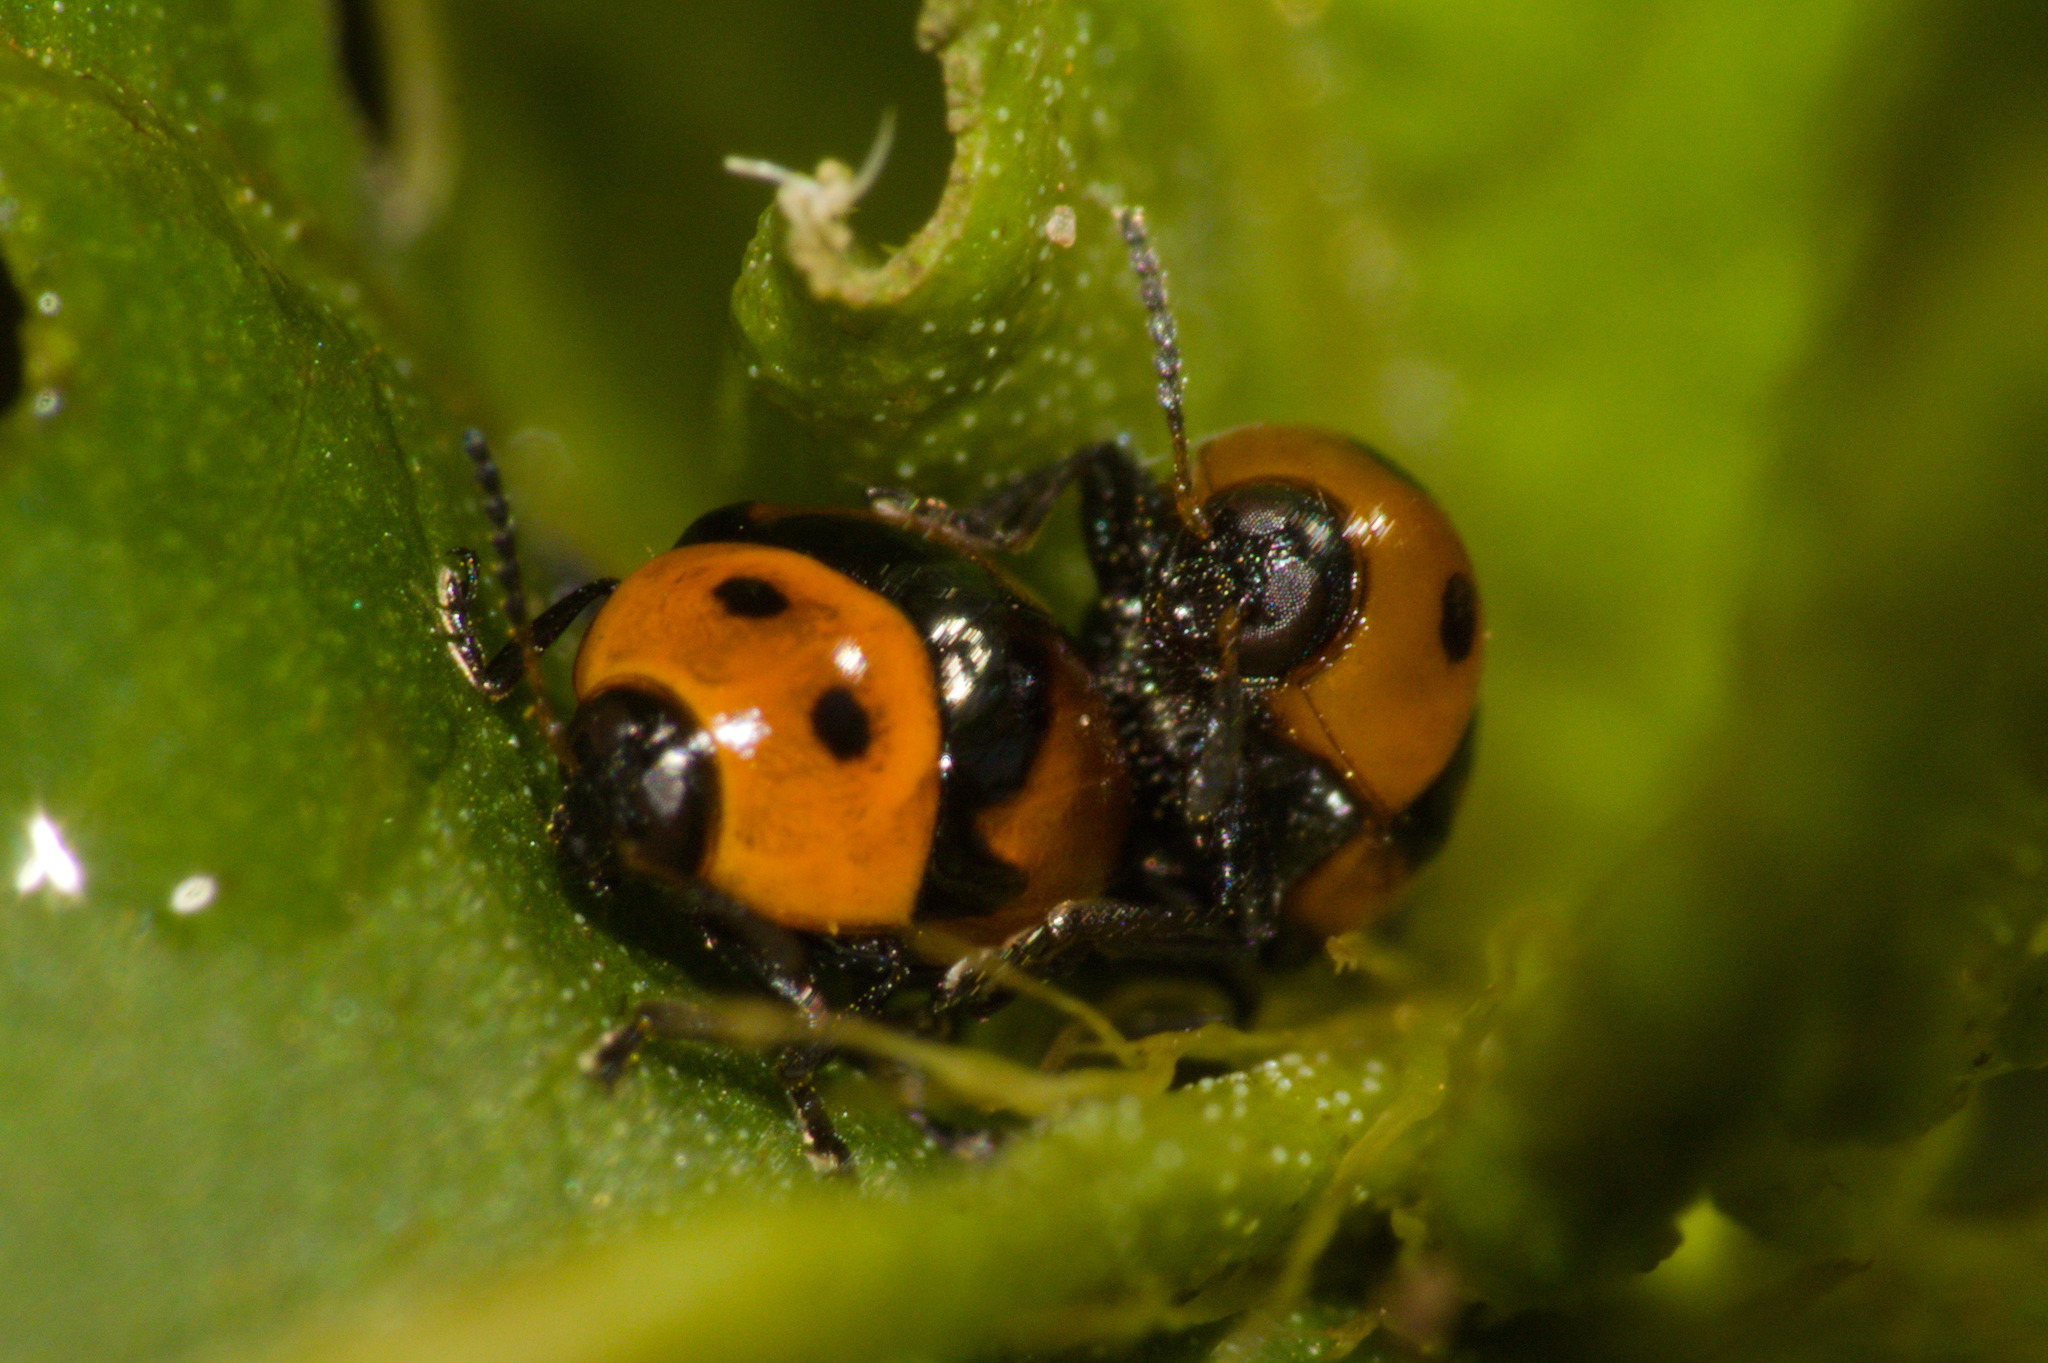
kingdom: Animalia
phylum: Arthropoda
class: Insecta
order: Coleoptera
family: Chrysomelidae
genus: Lexiphanes
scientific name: Lexiphanes
